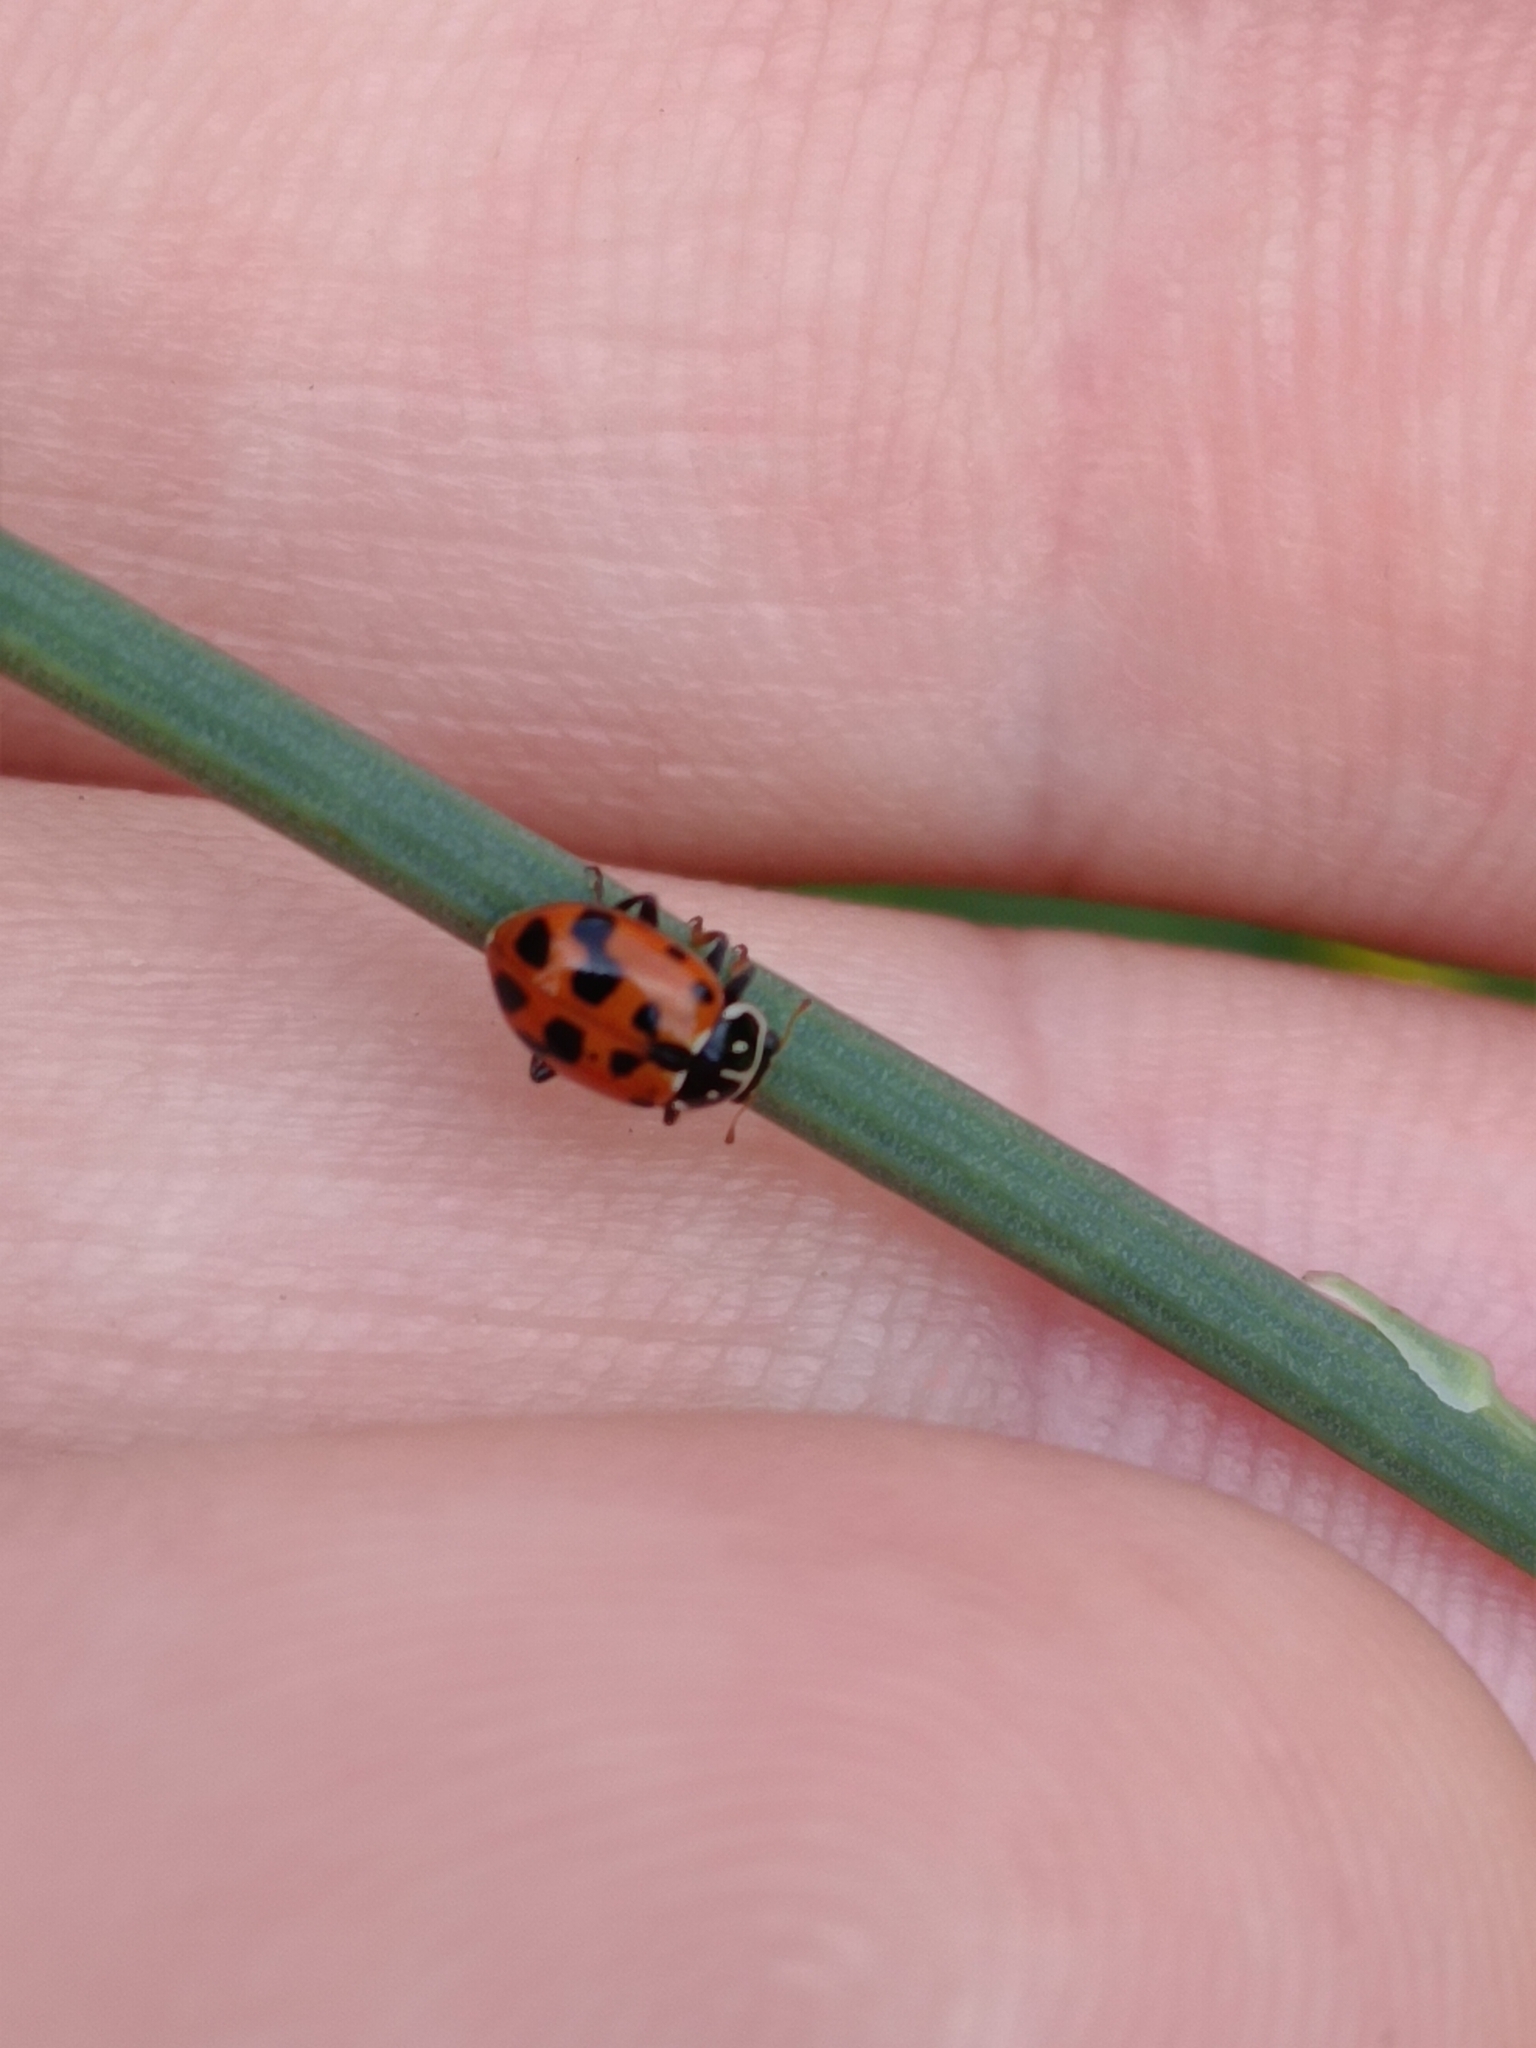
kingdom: Animalia
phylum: Arthropoda
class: Insecta
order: Coleoptera
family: Coccinellidae
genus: Hippodamia
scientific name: Hippodamia variegata
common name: Ladybird beetle
